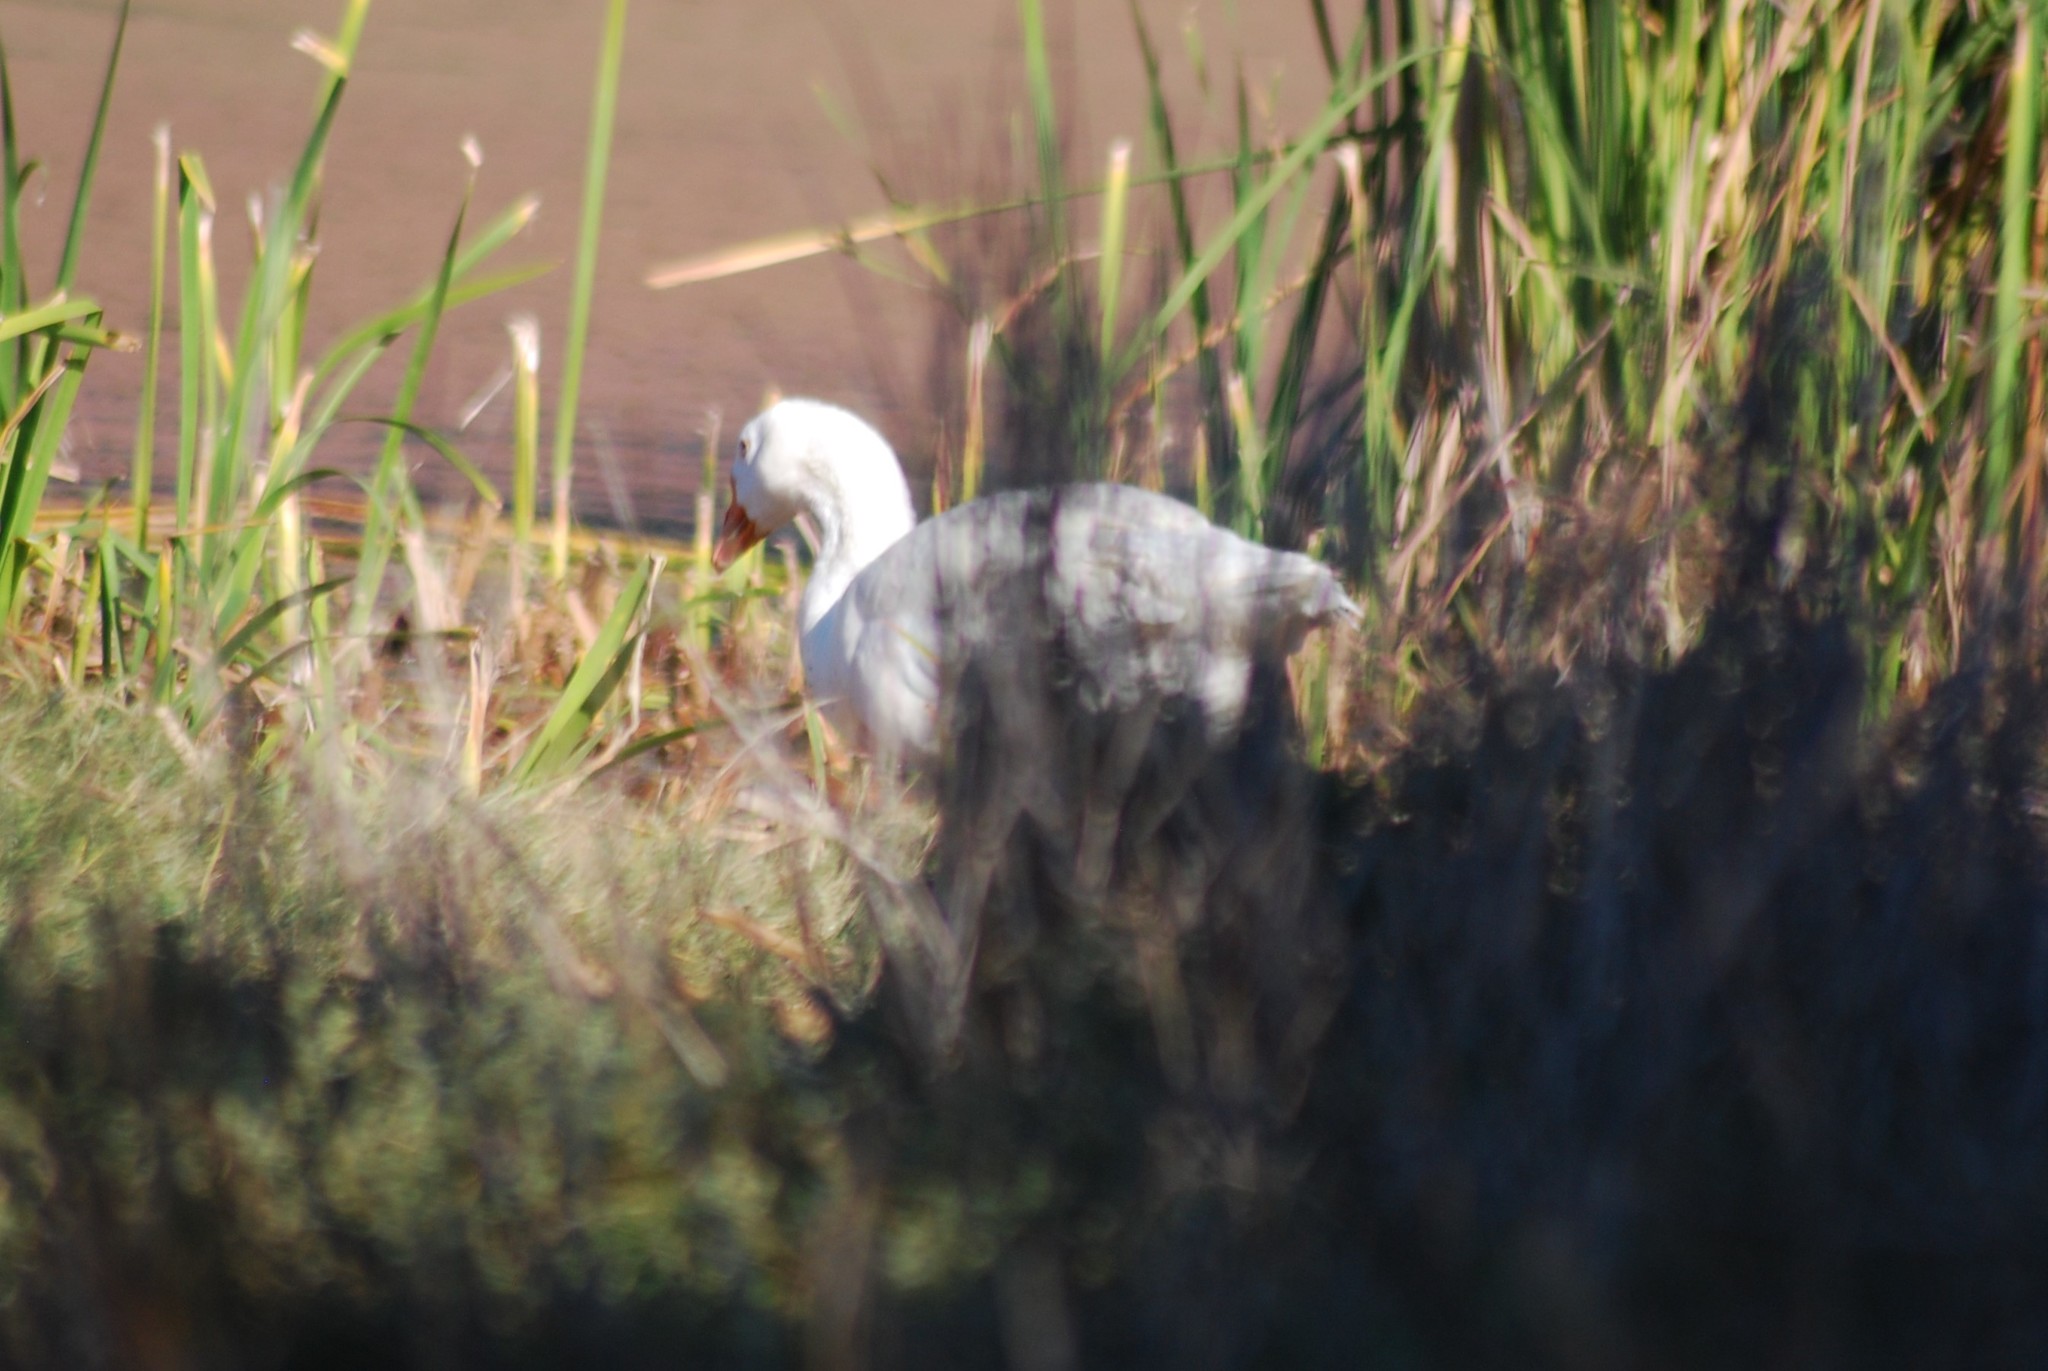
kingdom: Animalia
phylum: Chordata
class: Aves
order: Anseriformes
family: Anatidae
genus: Anser
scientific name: Anser anser
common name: Greylag goose
